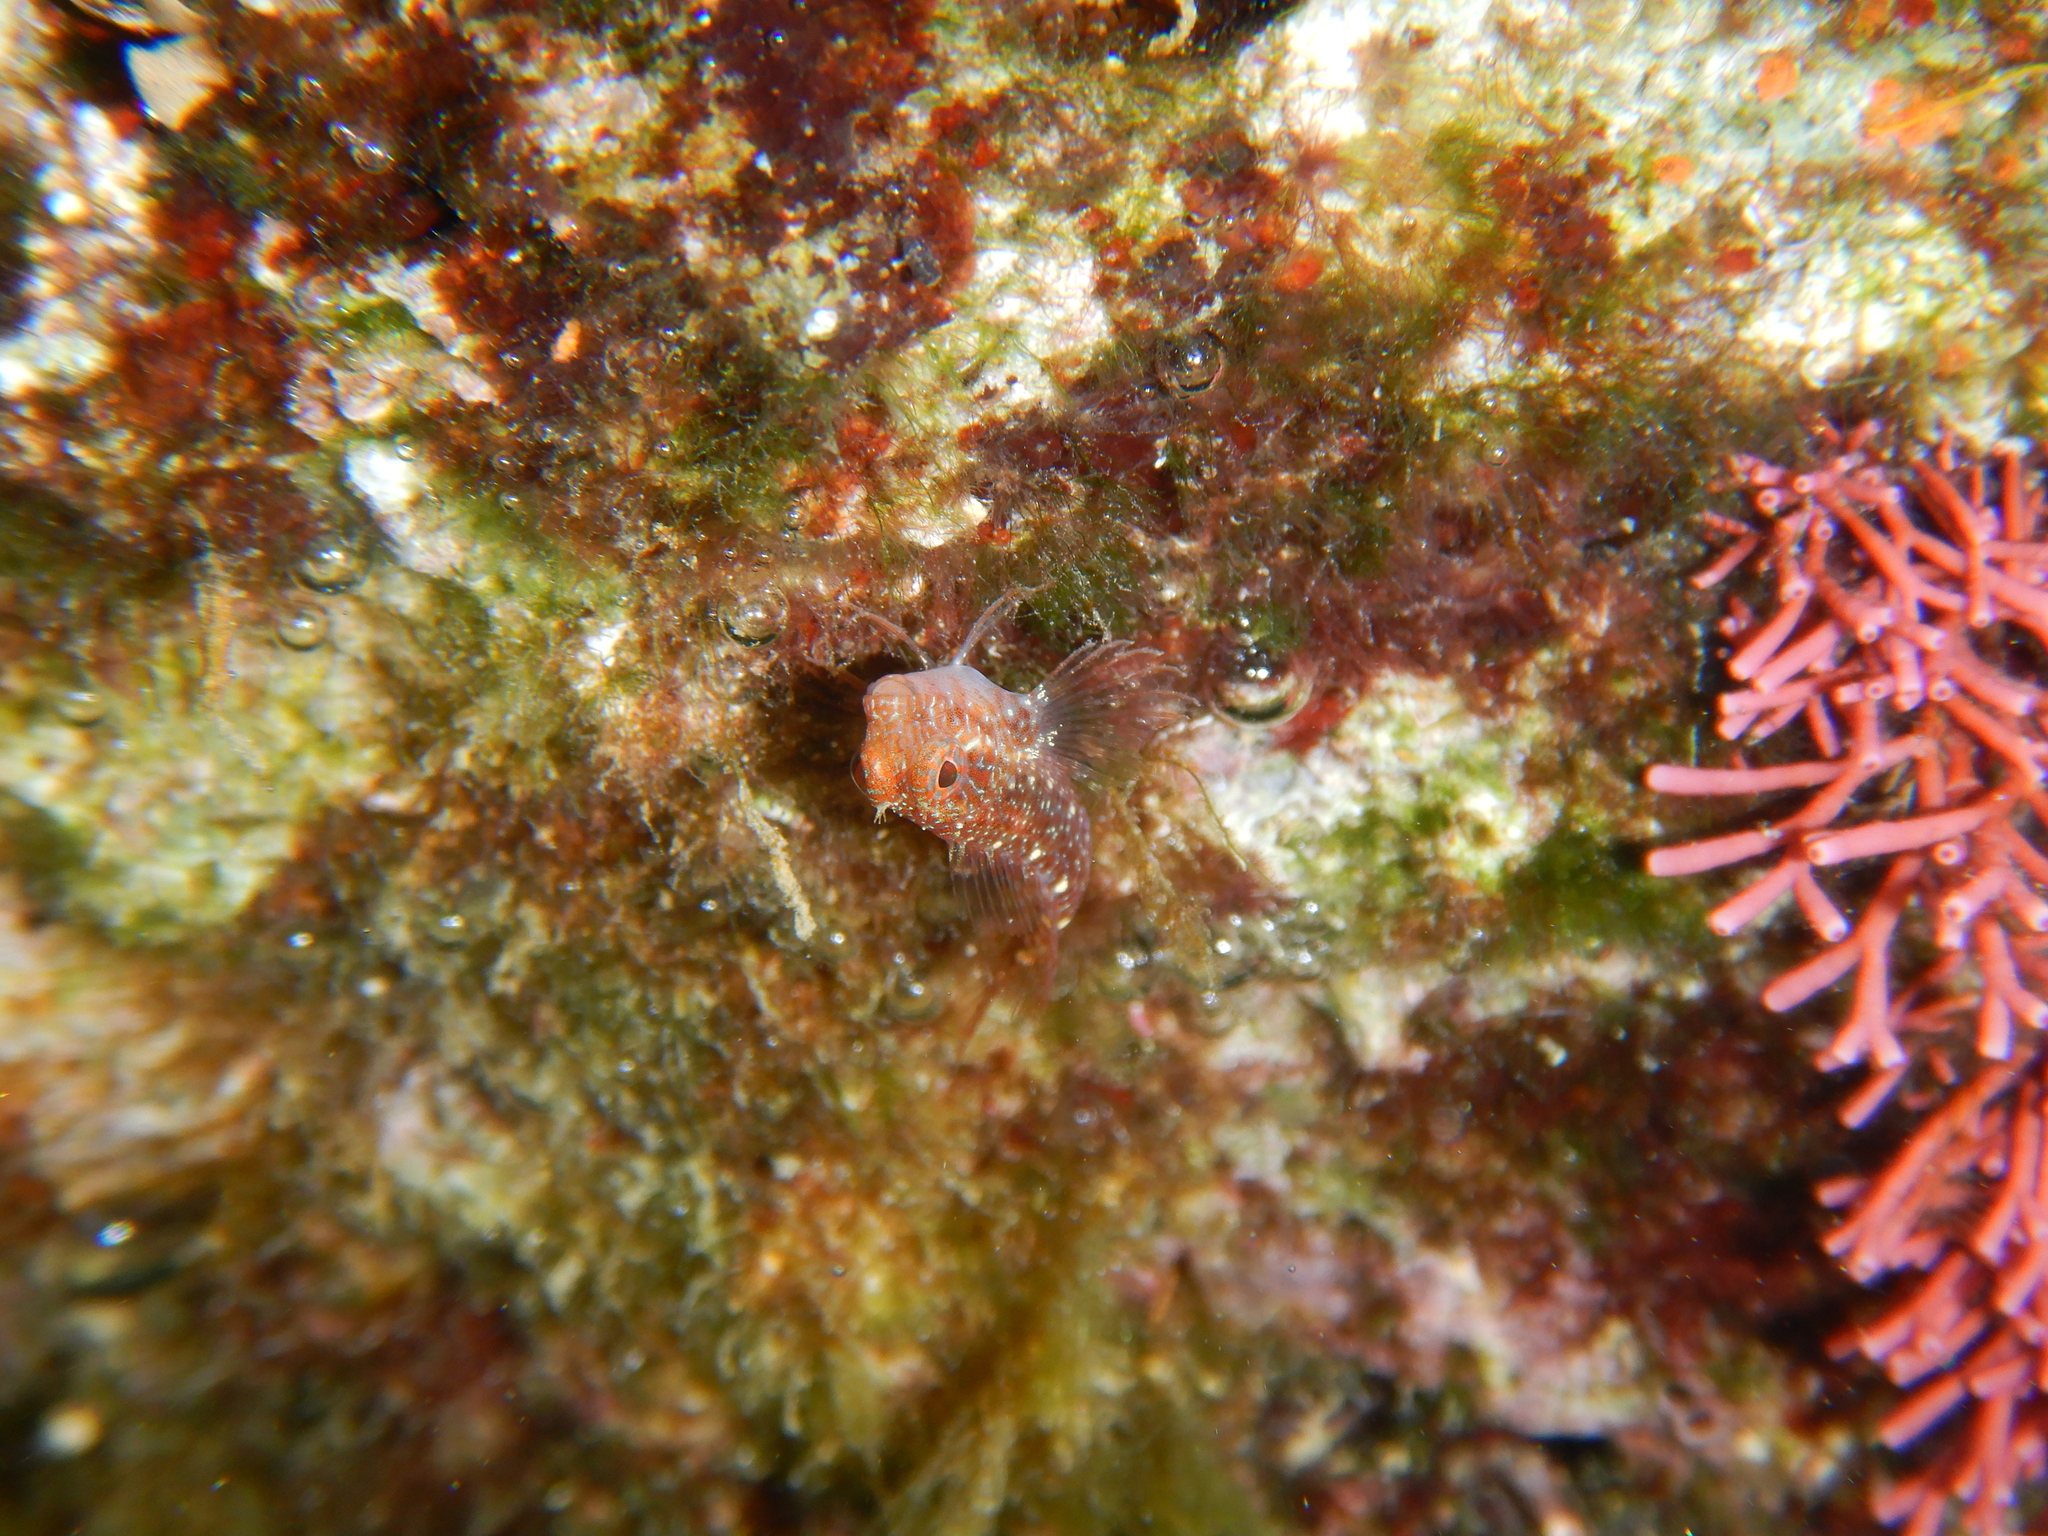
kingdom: Animalia
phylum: Chordata
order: Perciformes
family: Blenniidae
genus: Parablennius
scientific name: Parablennius zvonimiri
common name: Red blenny
